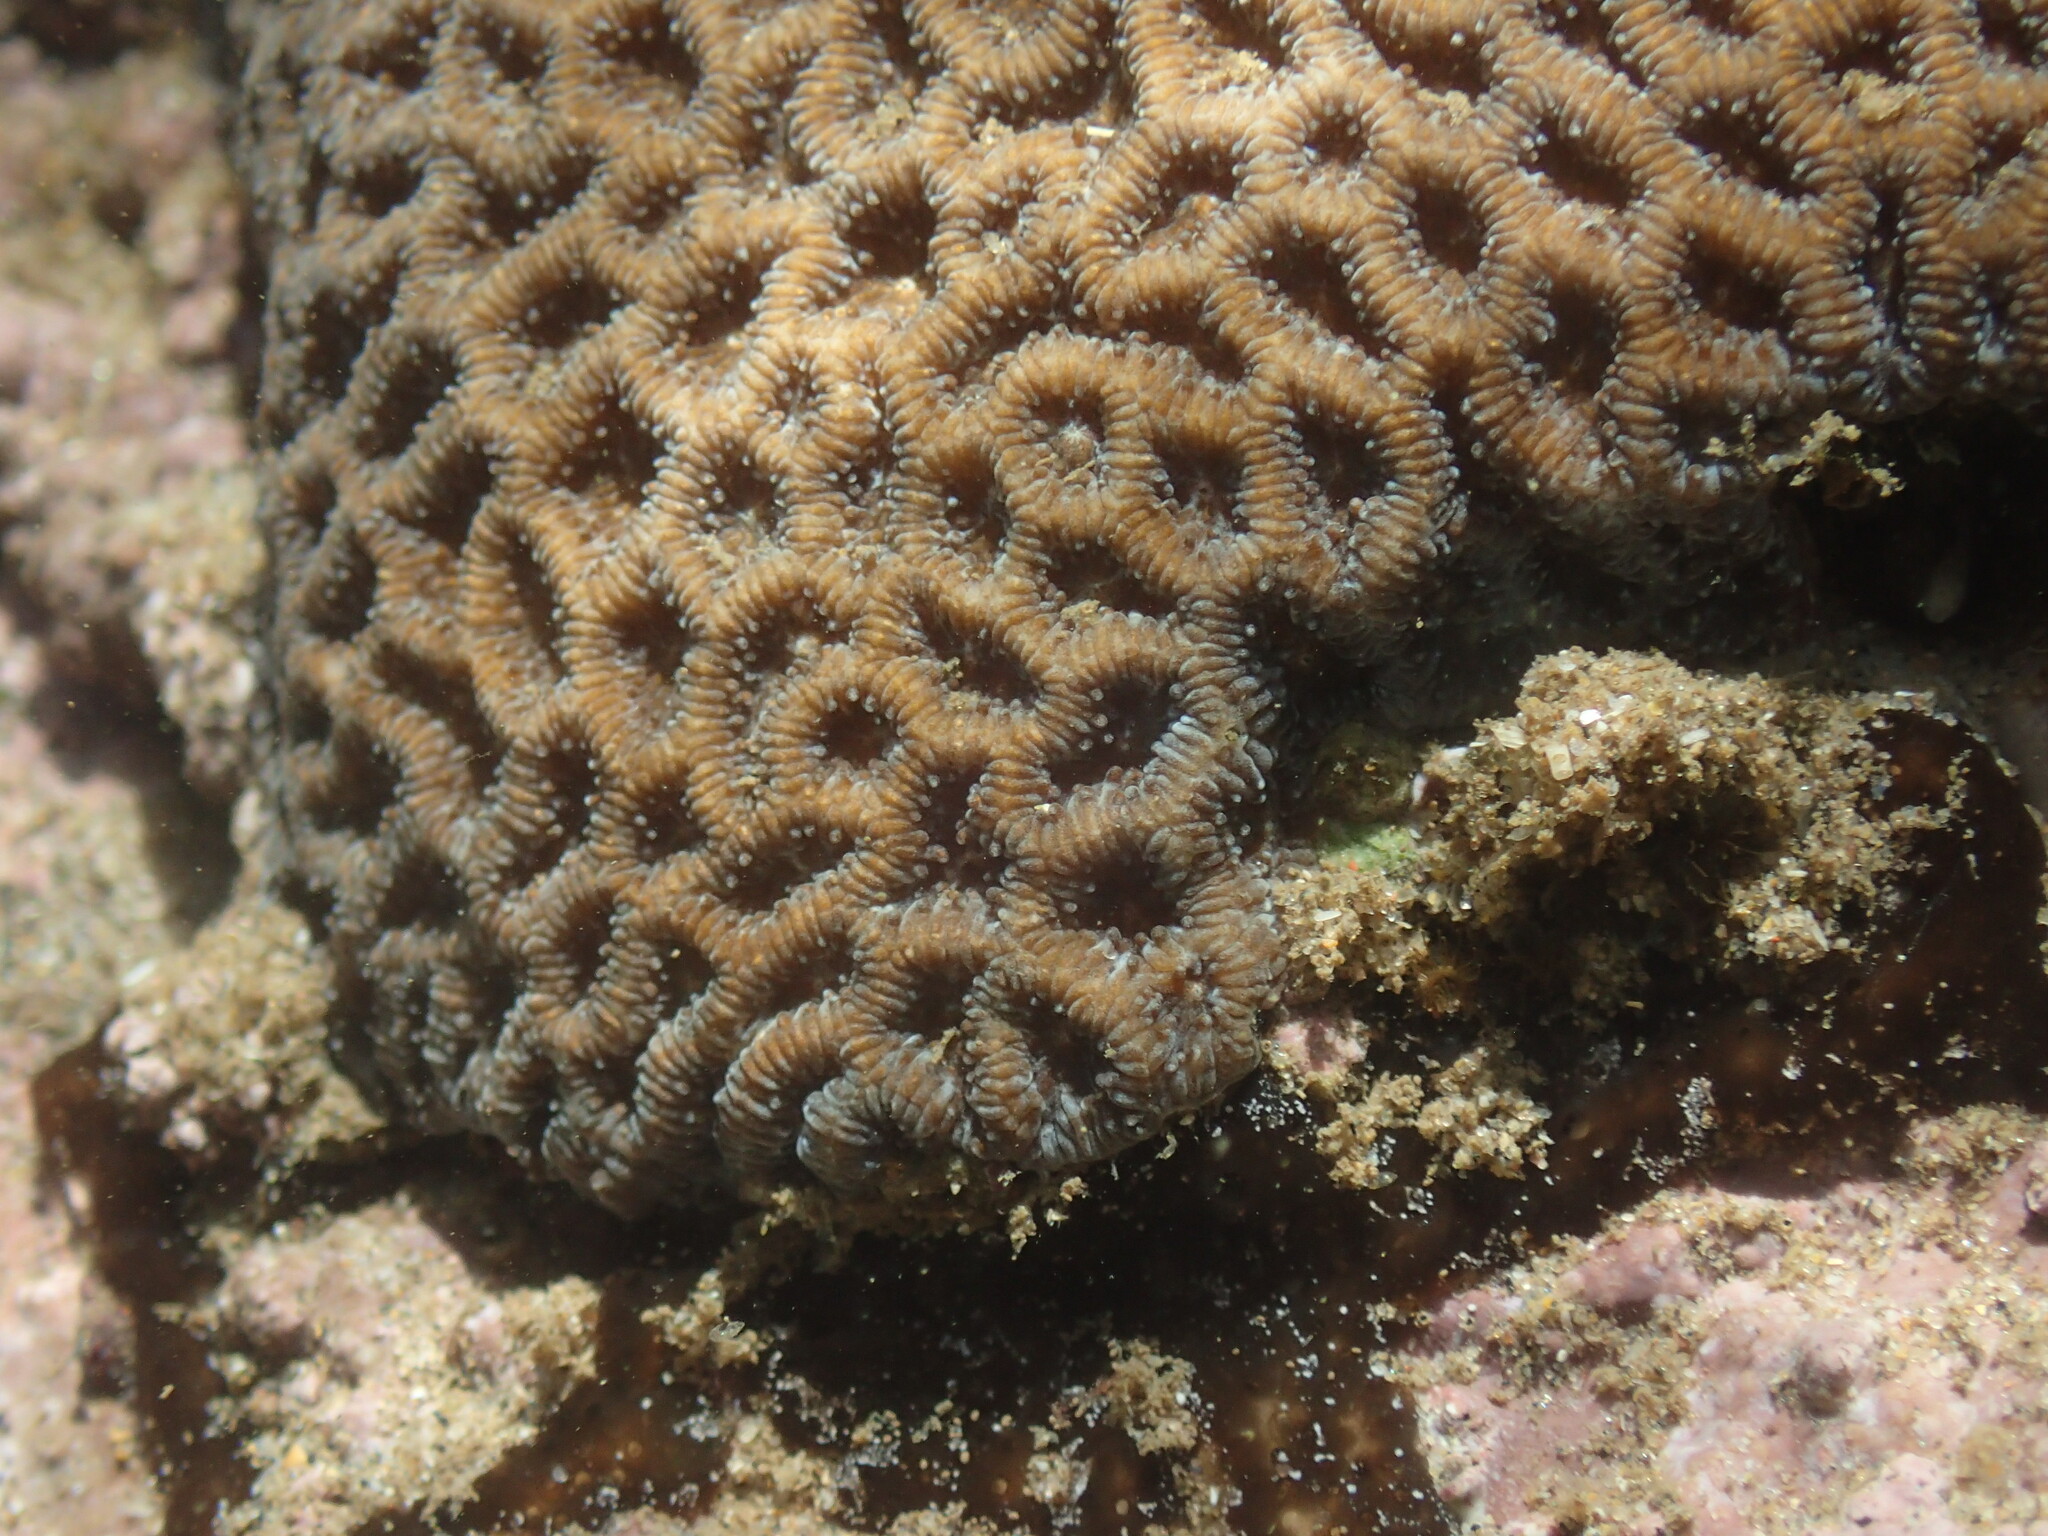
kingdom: Animalia
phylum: Cnidaria
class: Anthozoa
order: Scleractinia
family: Coscinaraeidae
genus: Anomastraea
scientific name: Anomastraea irregularis
